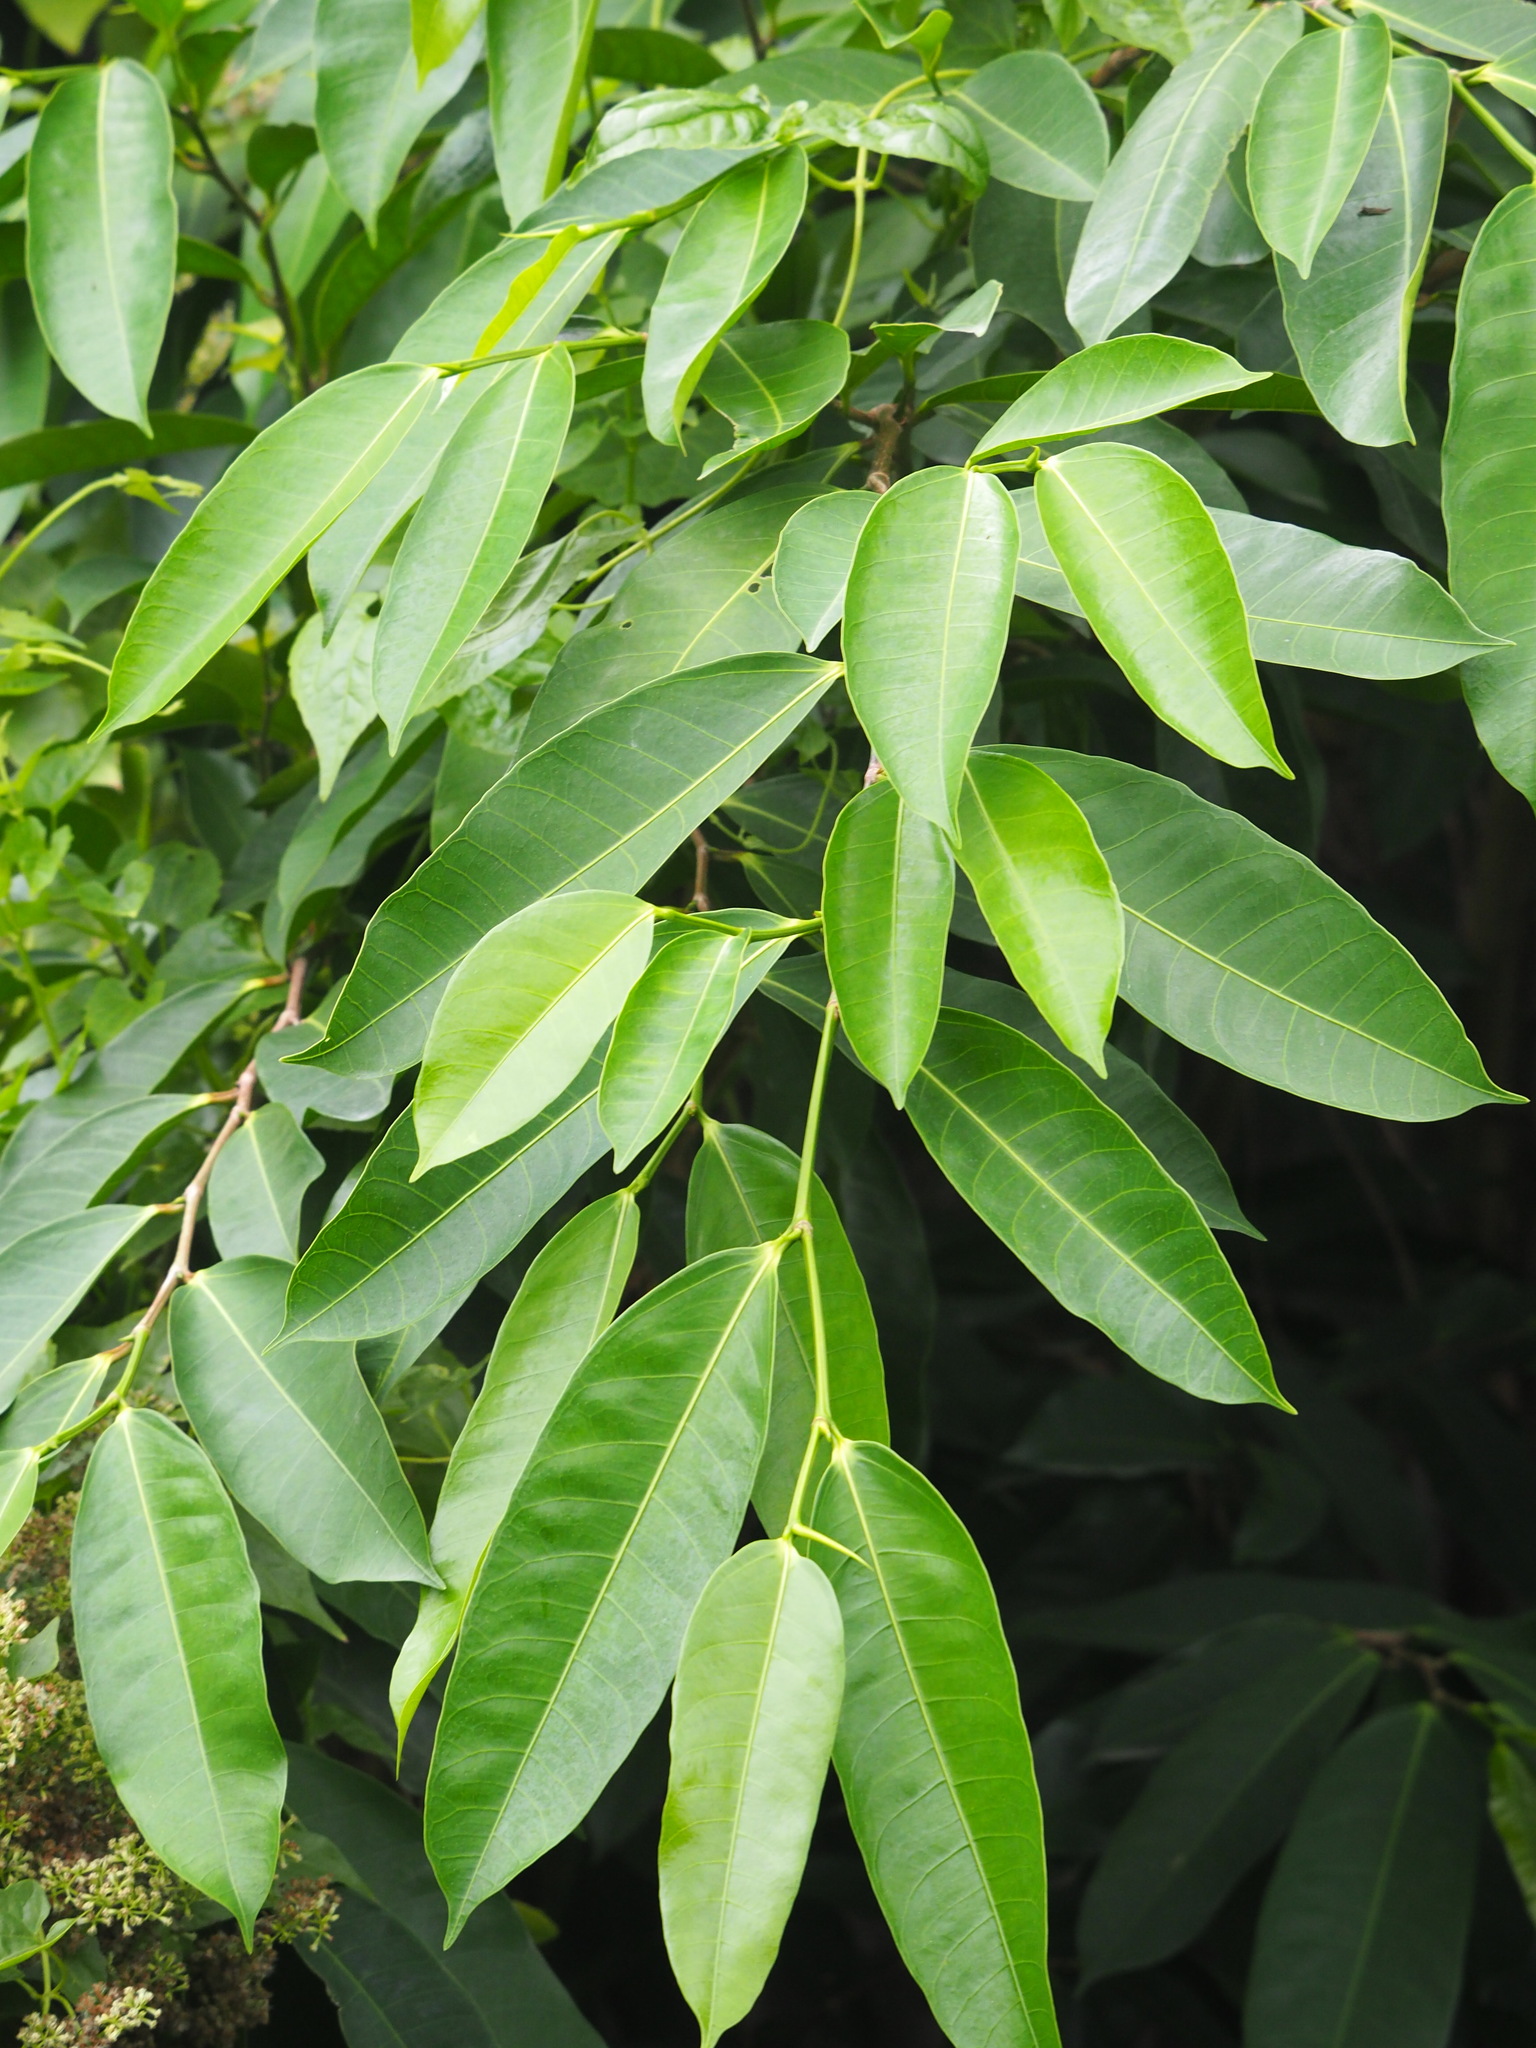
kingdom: Plantae
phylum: Tracheophyta
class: Magnoliopsida
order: Rosales
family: Moraceae
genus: Ficus
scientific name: Ficus virgata
